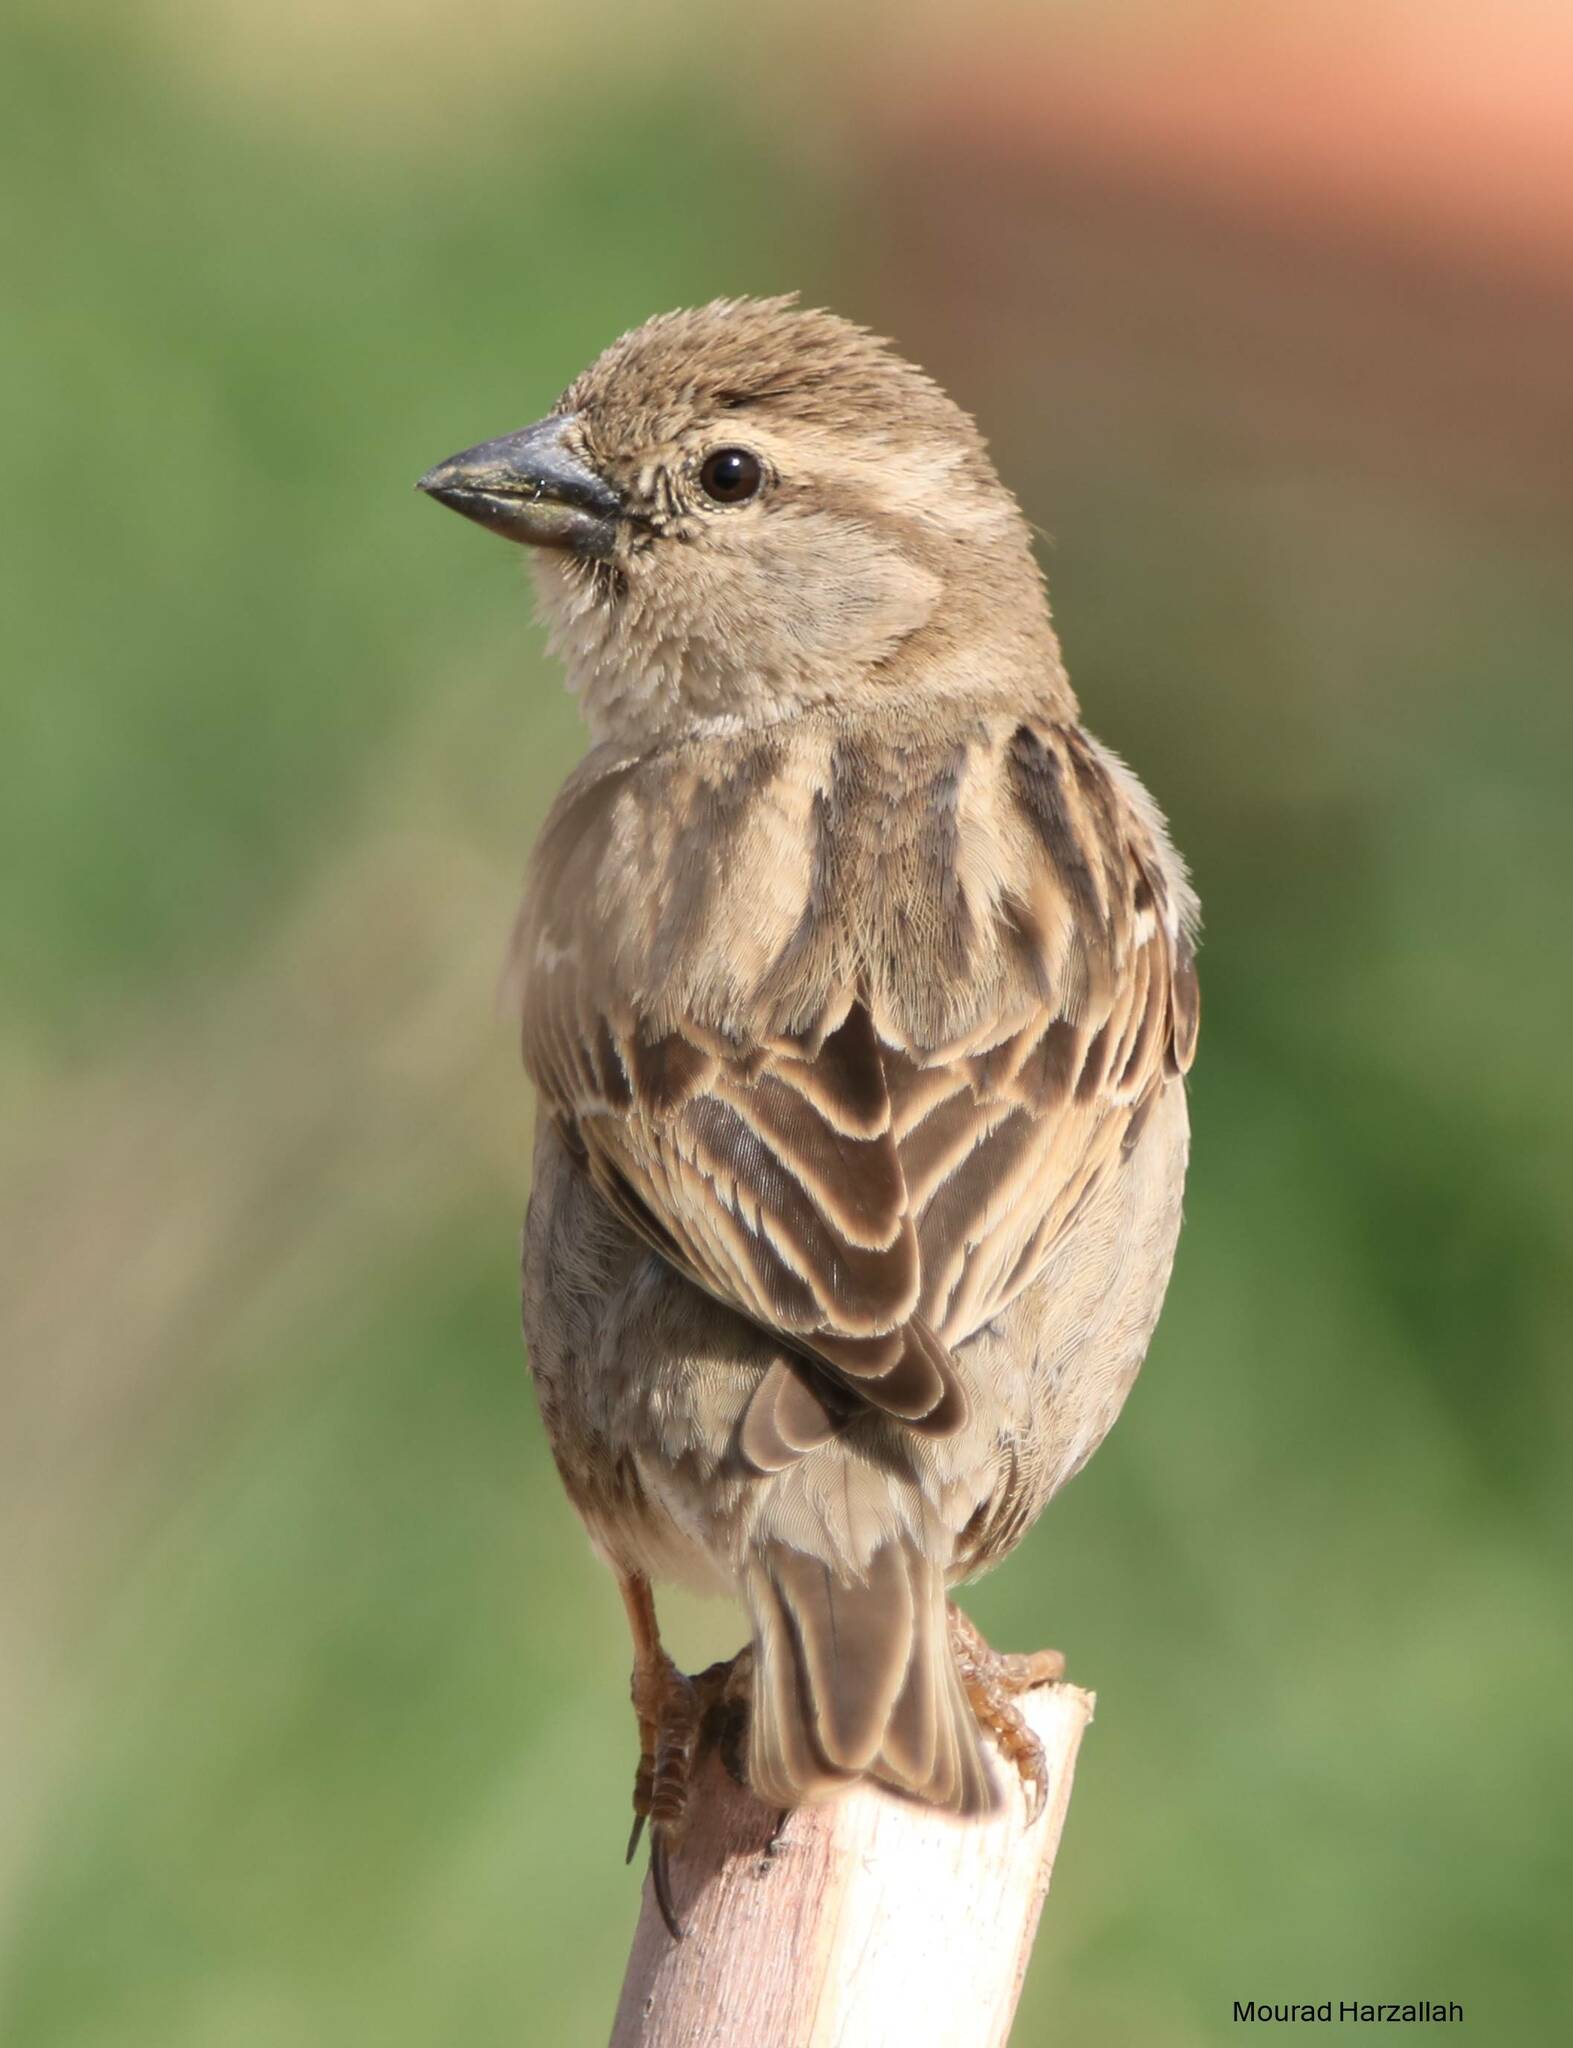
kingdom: Animalia
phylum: Chordata
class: Aves
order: Passeriformes
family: Passeridae
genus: Passer
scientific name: Passer hispaniolensis
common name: Spanish sparrow
